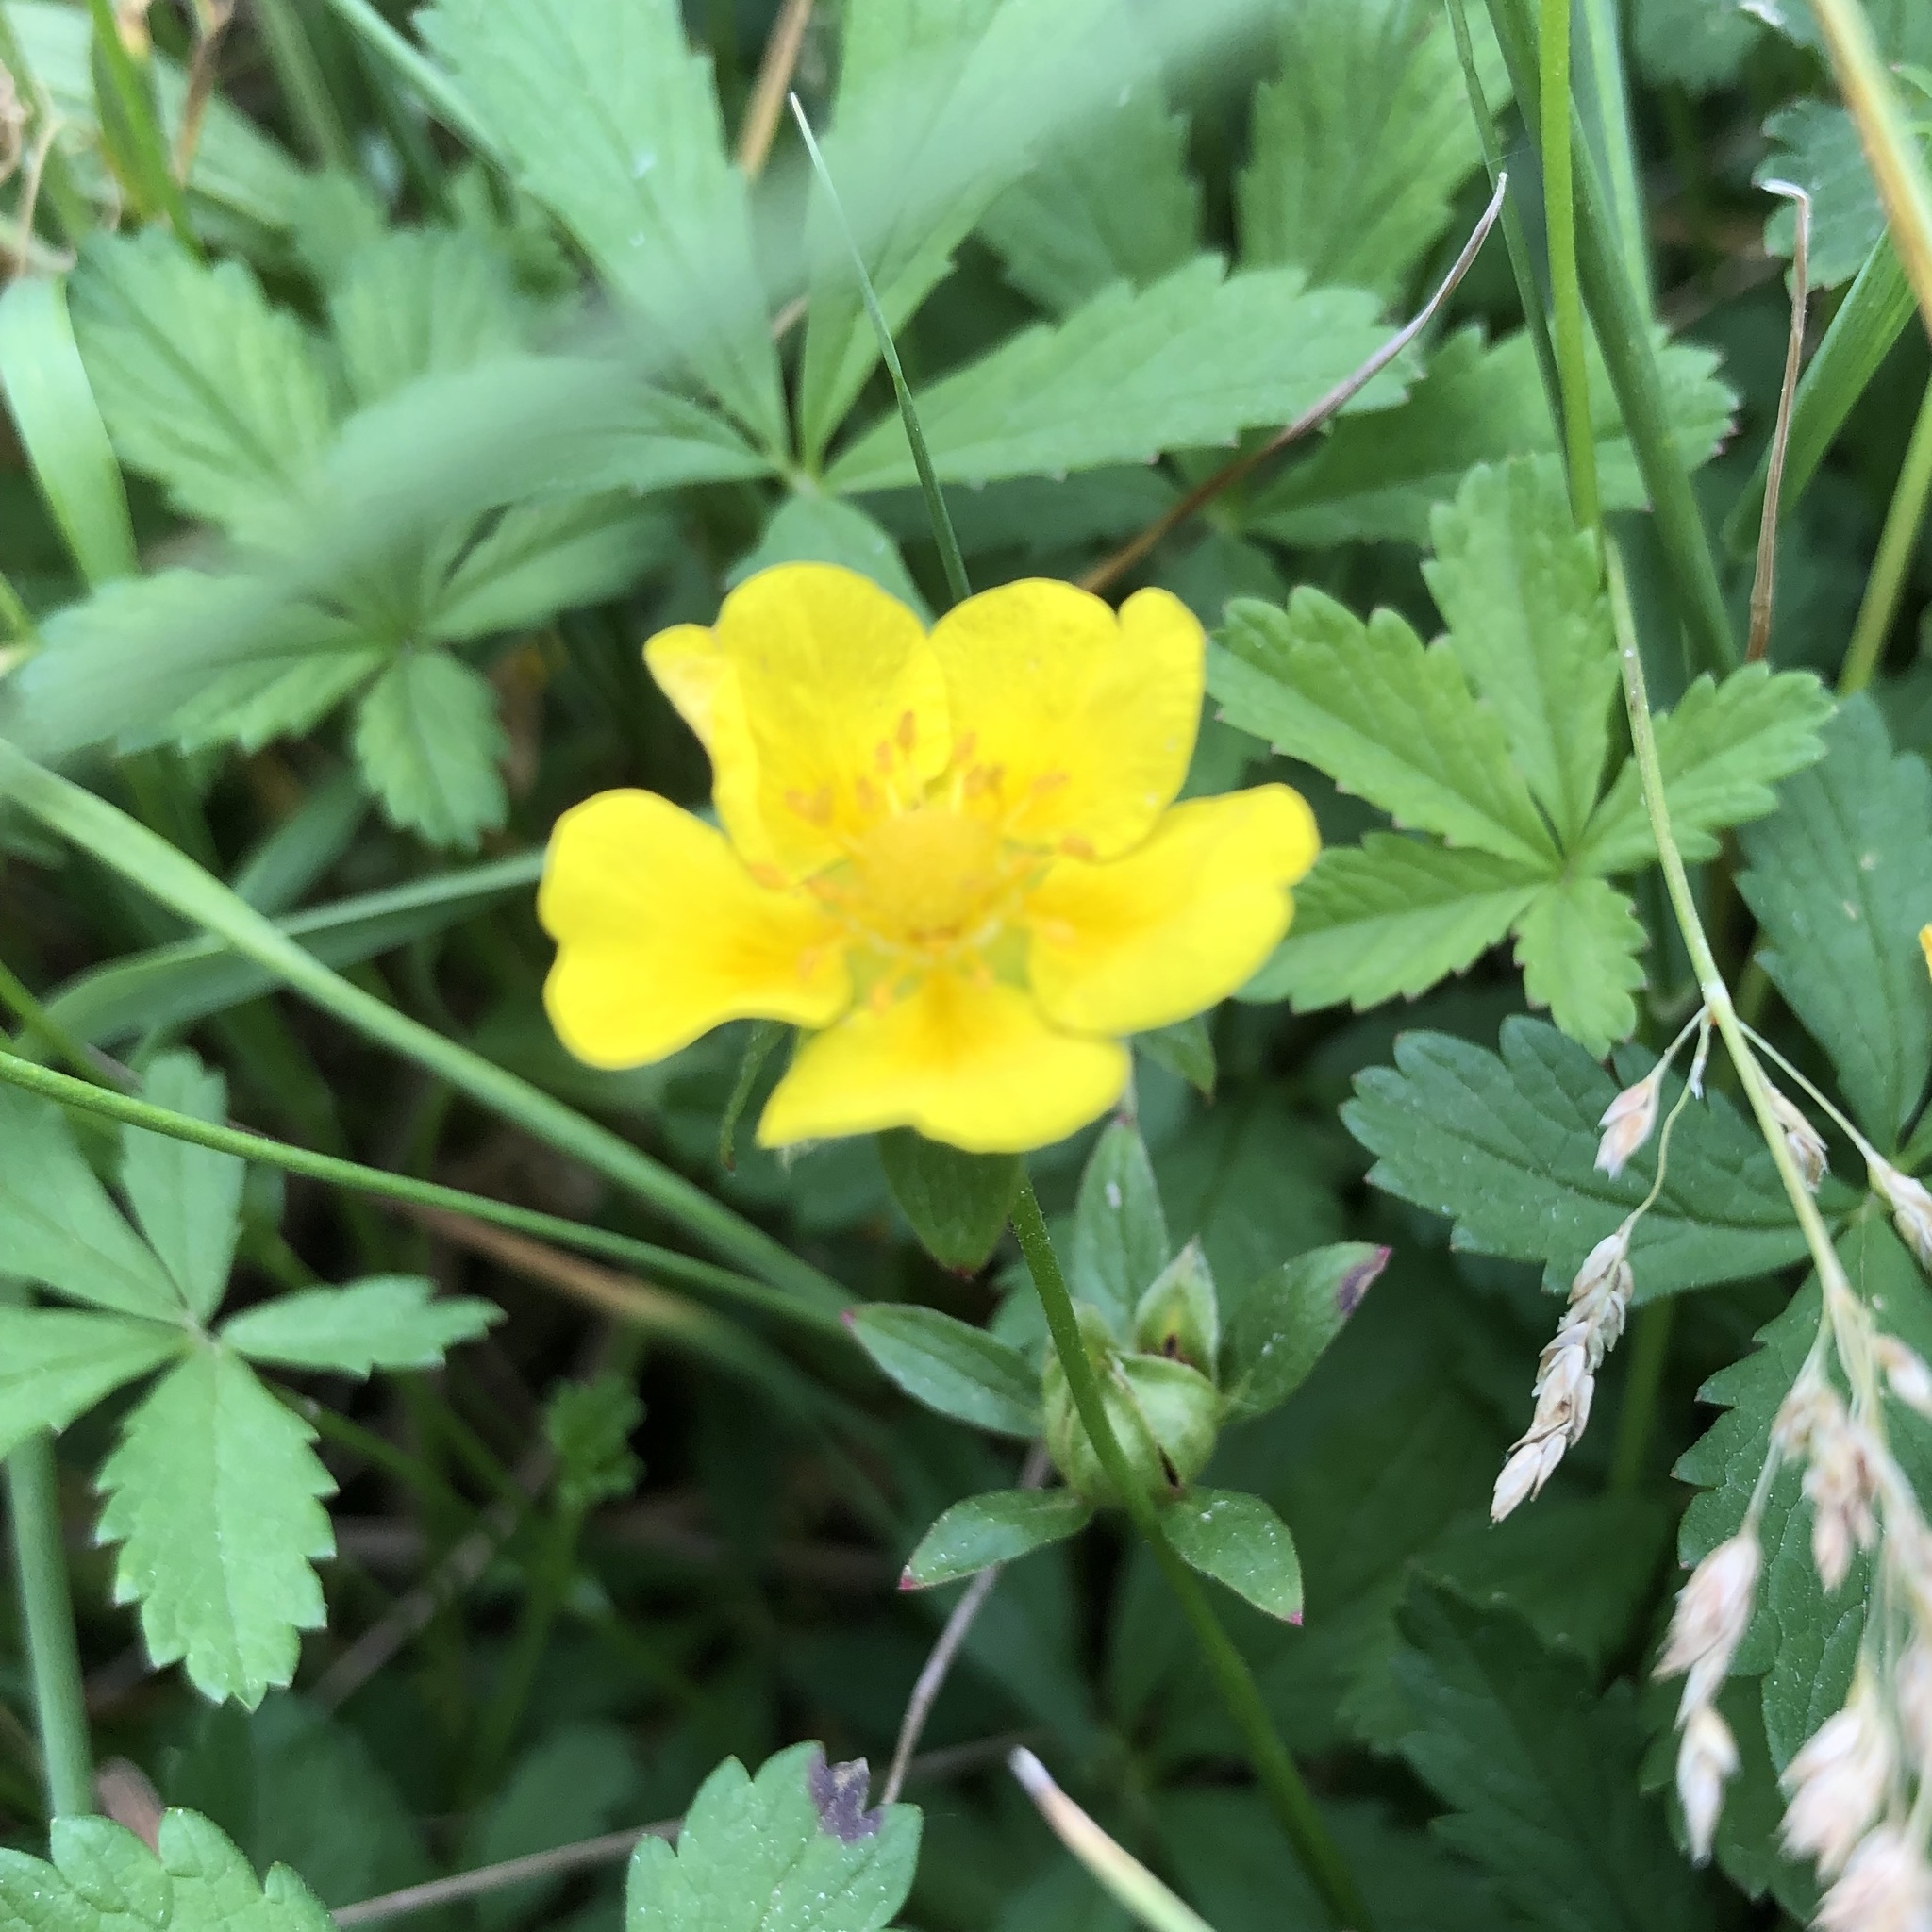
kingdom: Plantae
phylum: Tracheophyta
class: Magnoliopsida
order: Rosales
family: Rosaceae
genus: Potentilla
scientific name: Potentilla reptans
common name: Creeping cinquefoil
